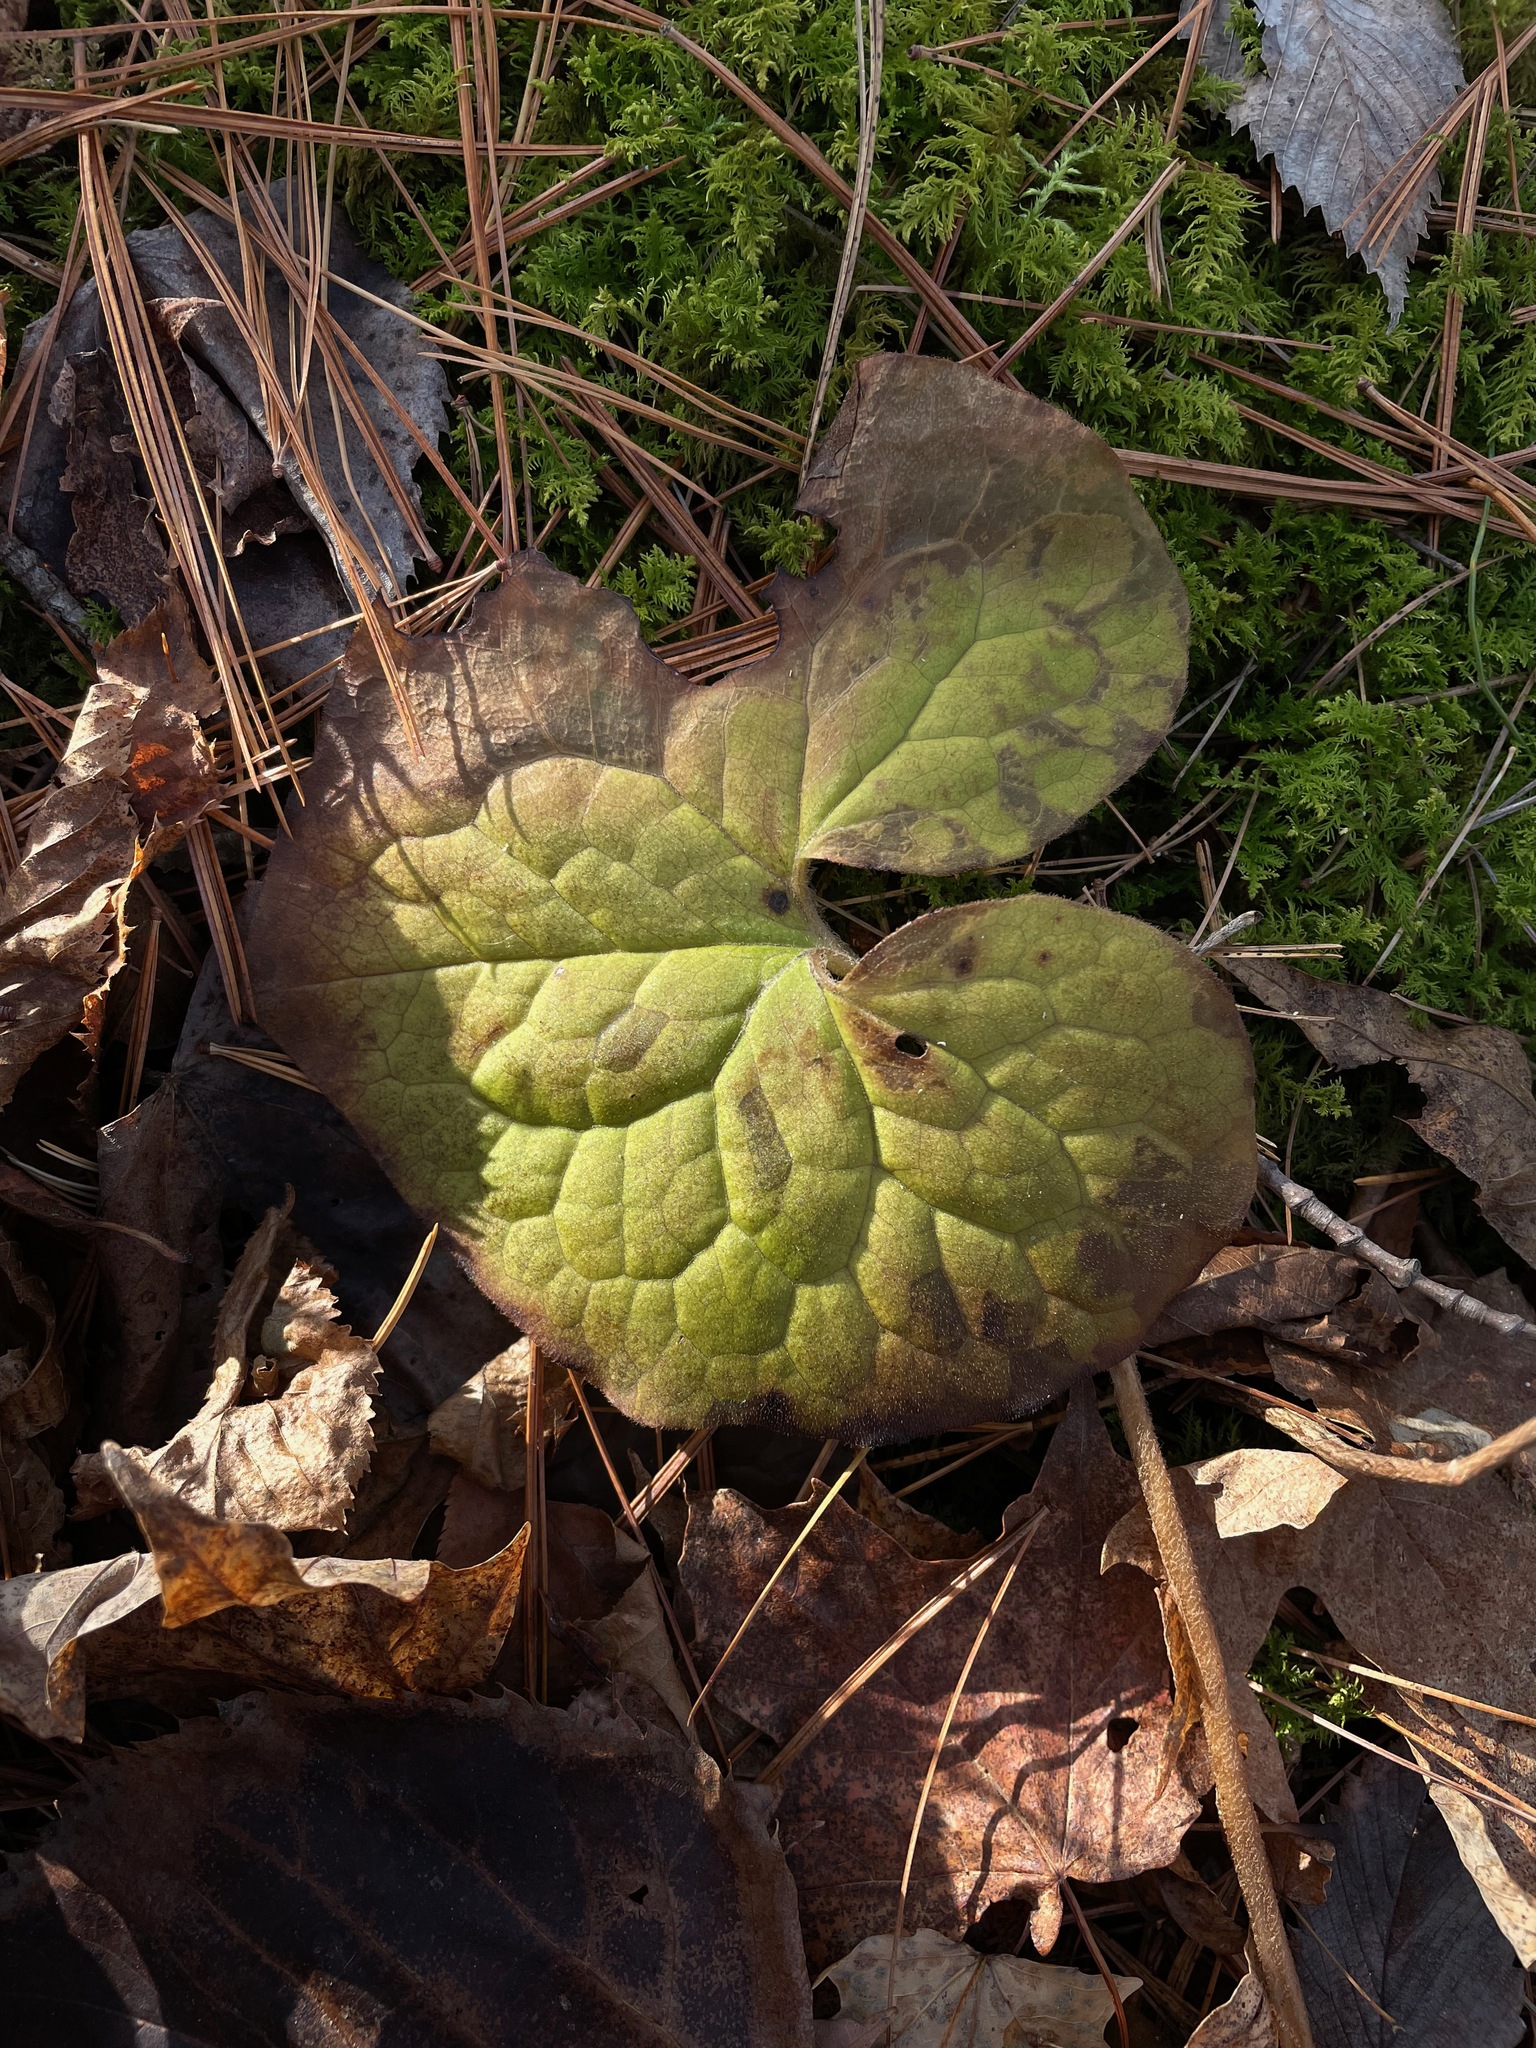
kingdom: Plantae
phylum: Tracheophyta
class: Magnoliopsida
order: Piperales
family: Aristolochiaceae
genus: Asarum
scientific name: Asarum canadense
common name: Wild ginger
